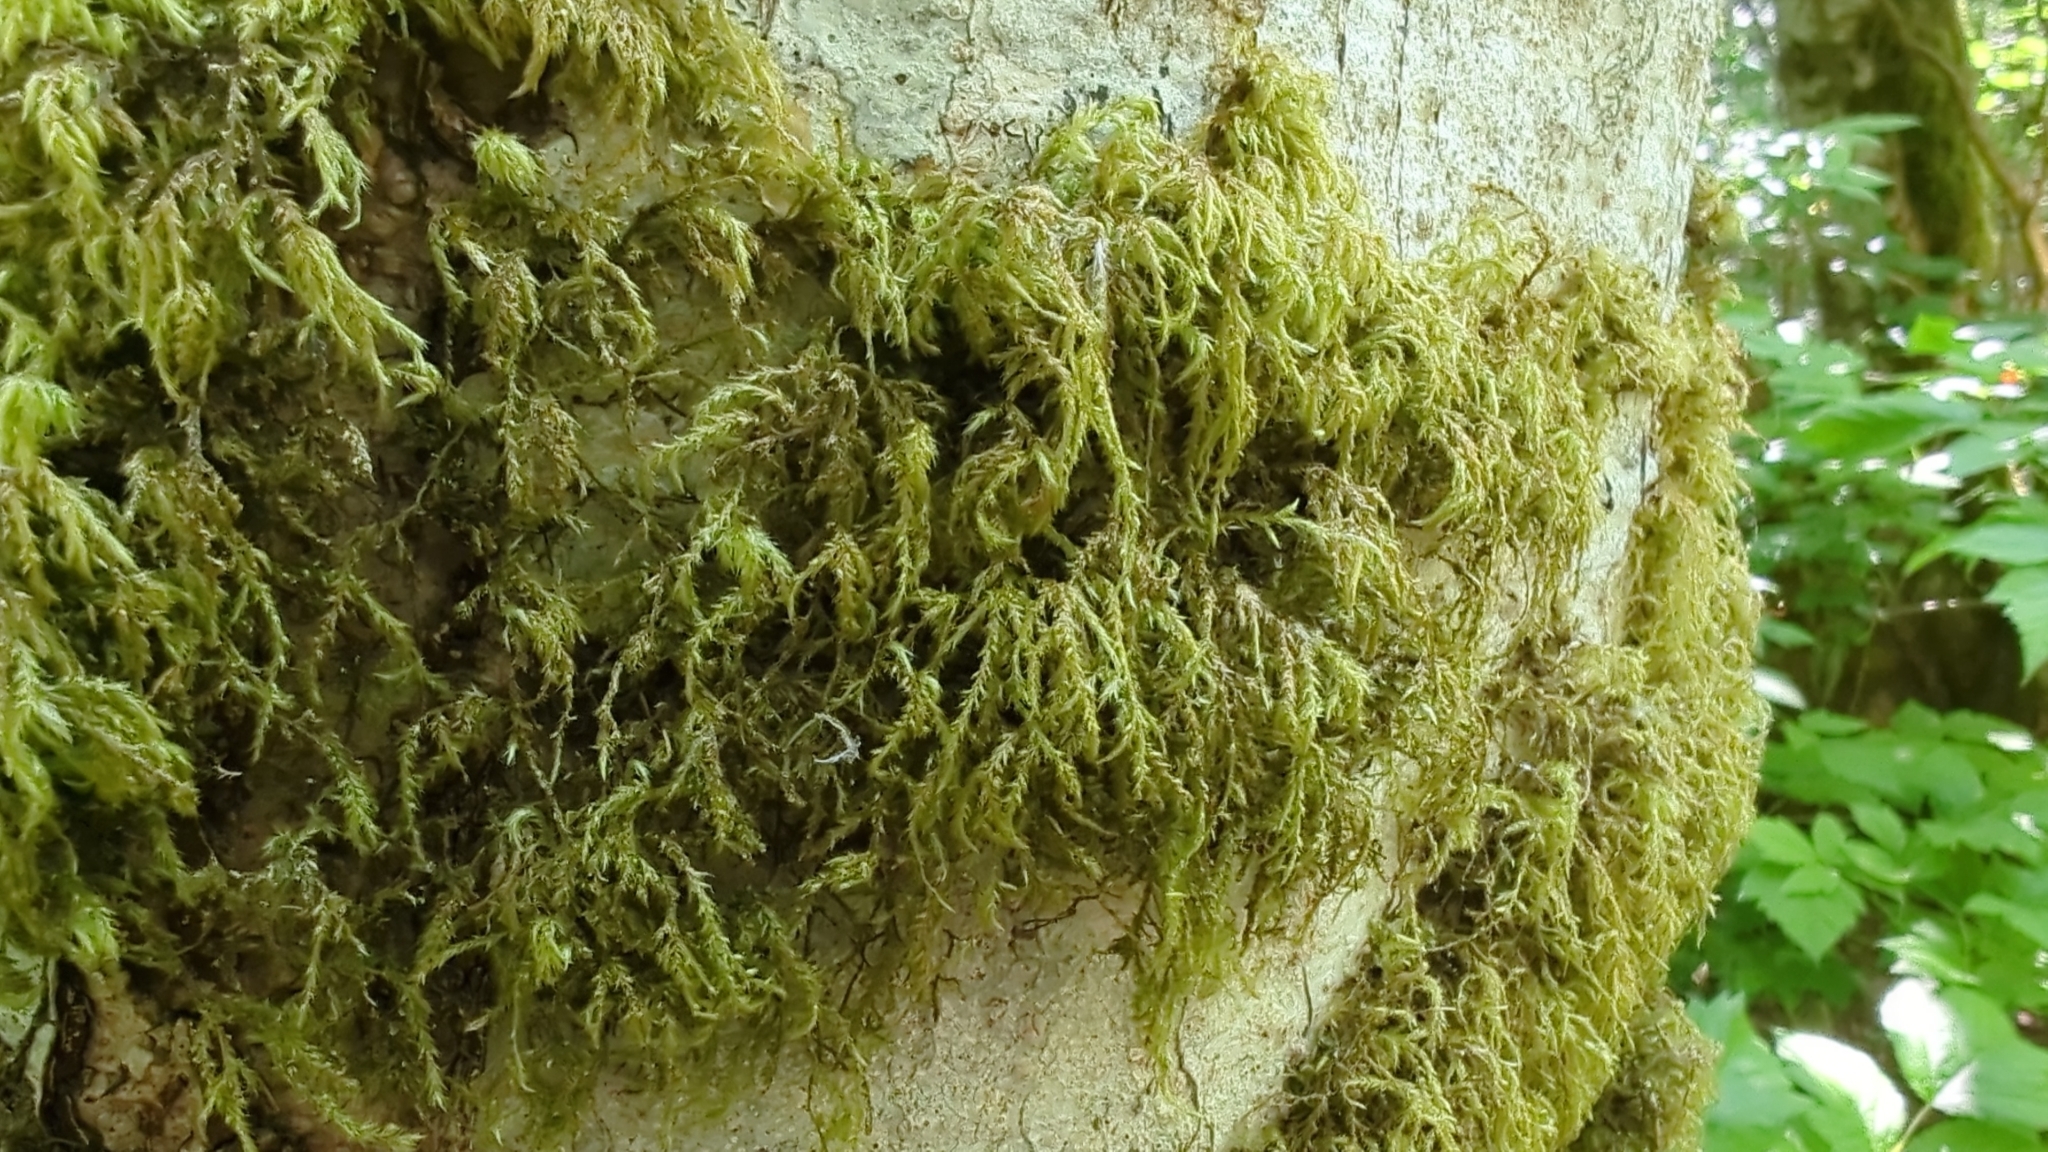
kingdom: Plantae
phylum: Bryophyta
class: Bryopsida
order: Hypnales
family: Lembophyllaceae
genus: Pseudisothecium
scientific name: Pseudisothecium stoloniferum
